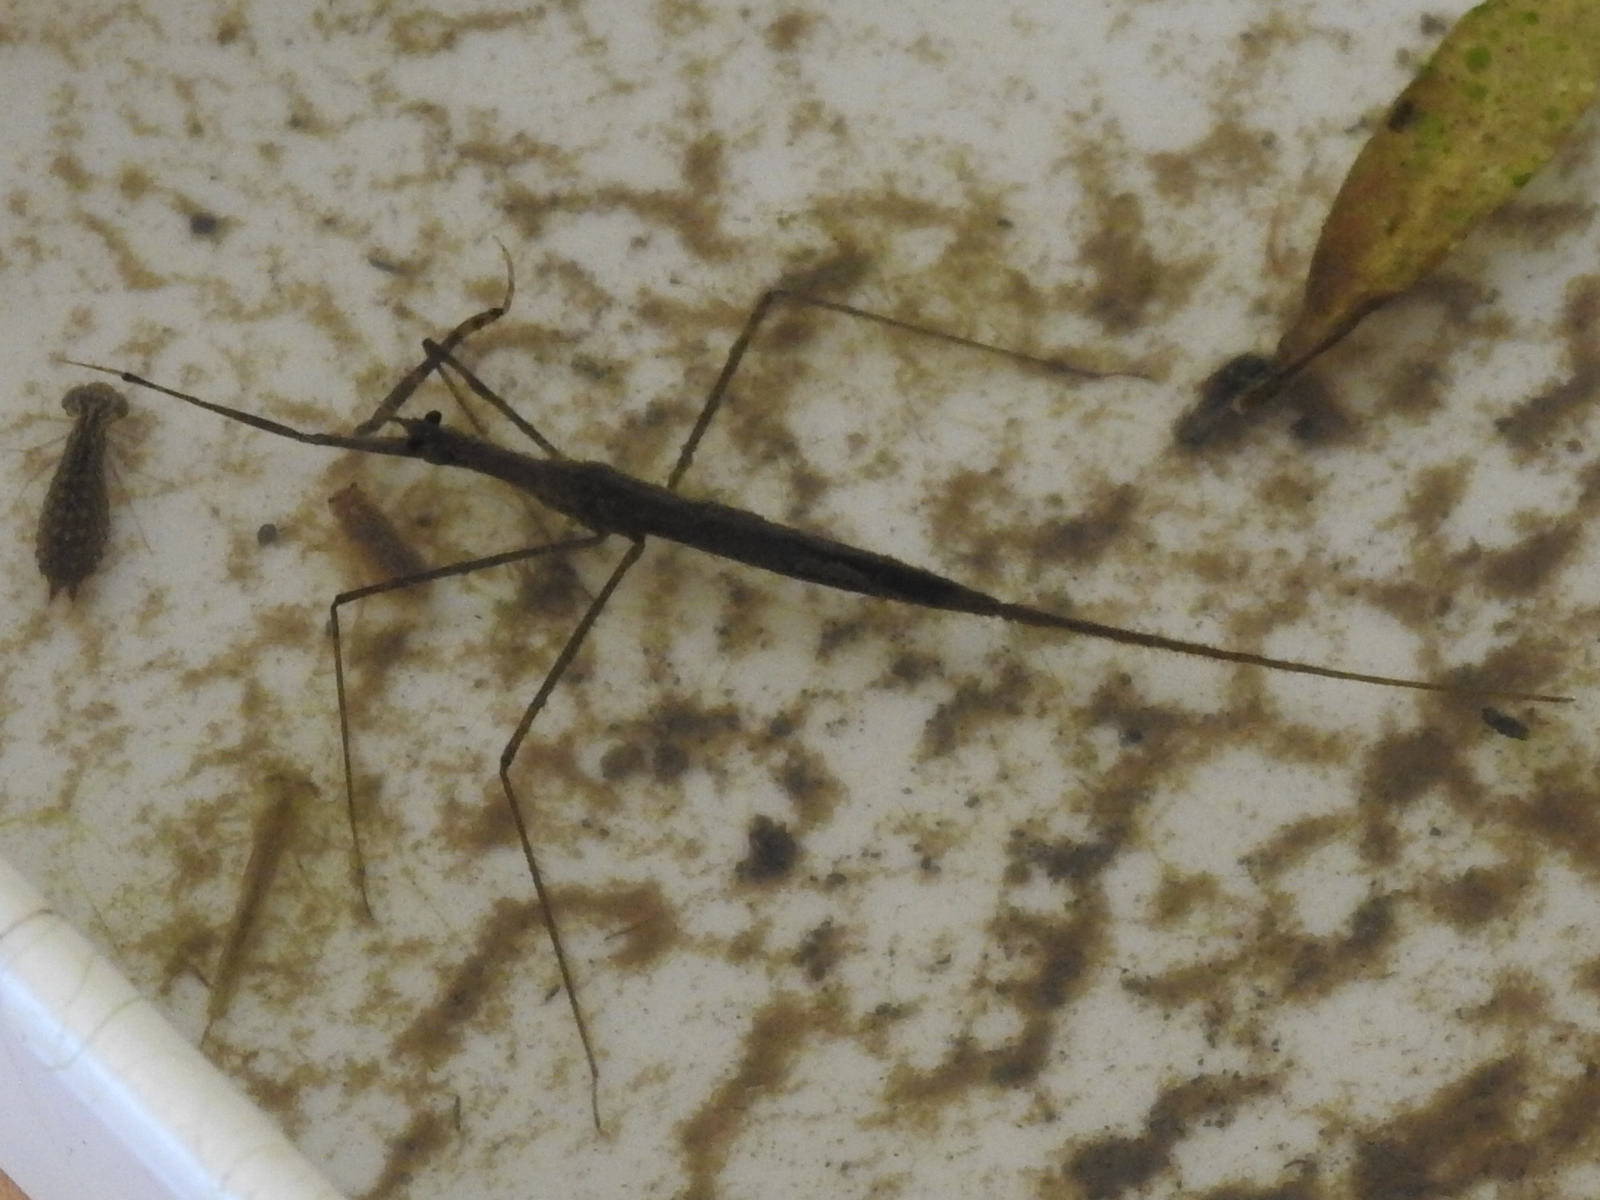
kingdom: Animalia
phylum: Arthropoda
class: Insecta
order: Hemiptera
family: Nepidae
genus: Ranatra
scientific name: Ranatra
